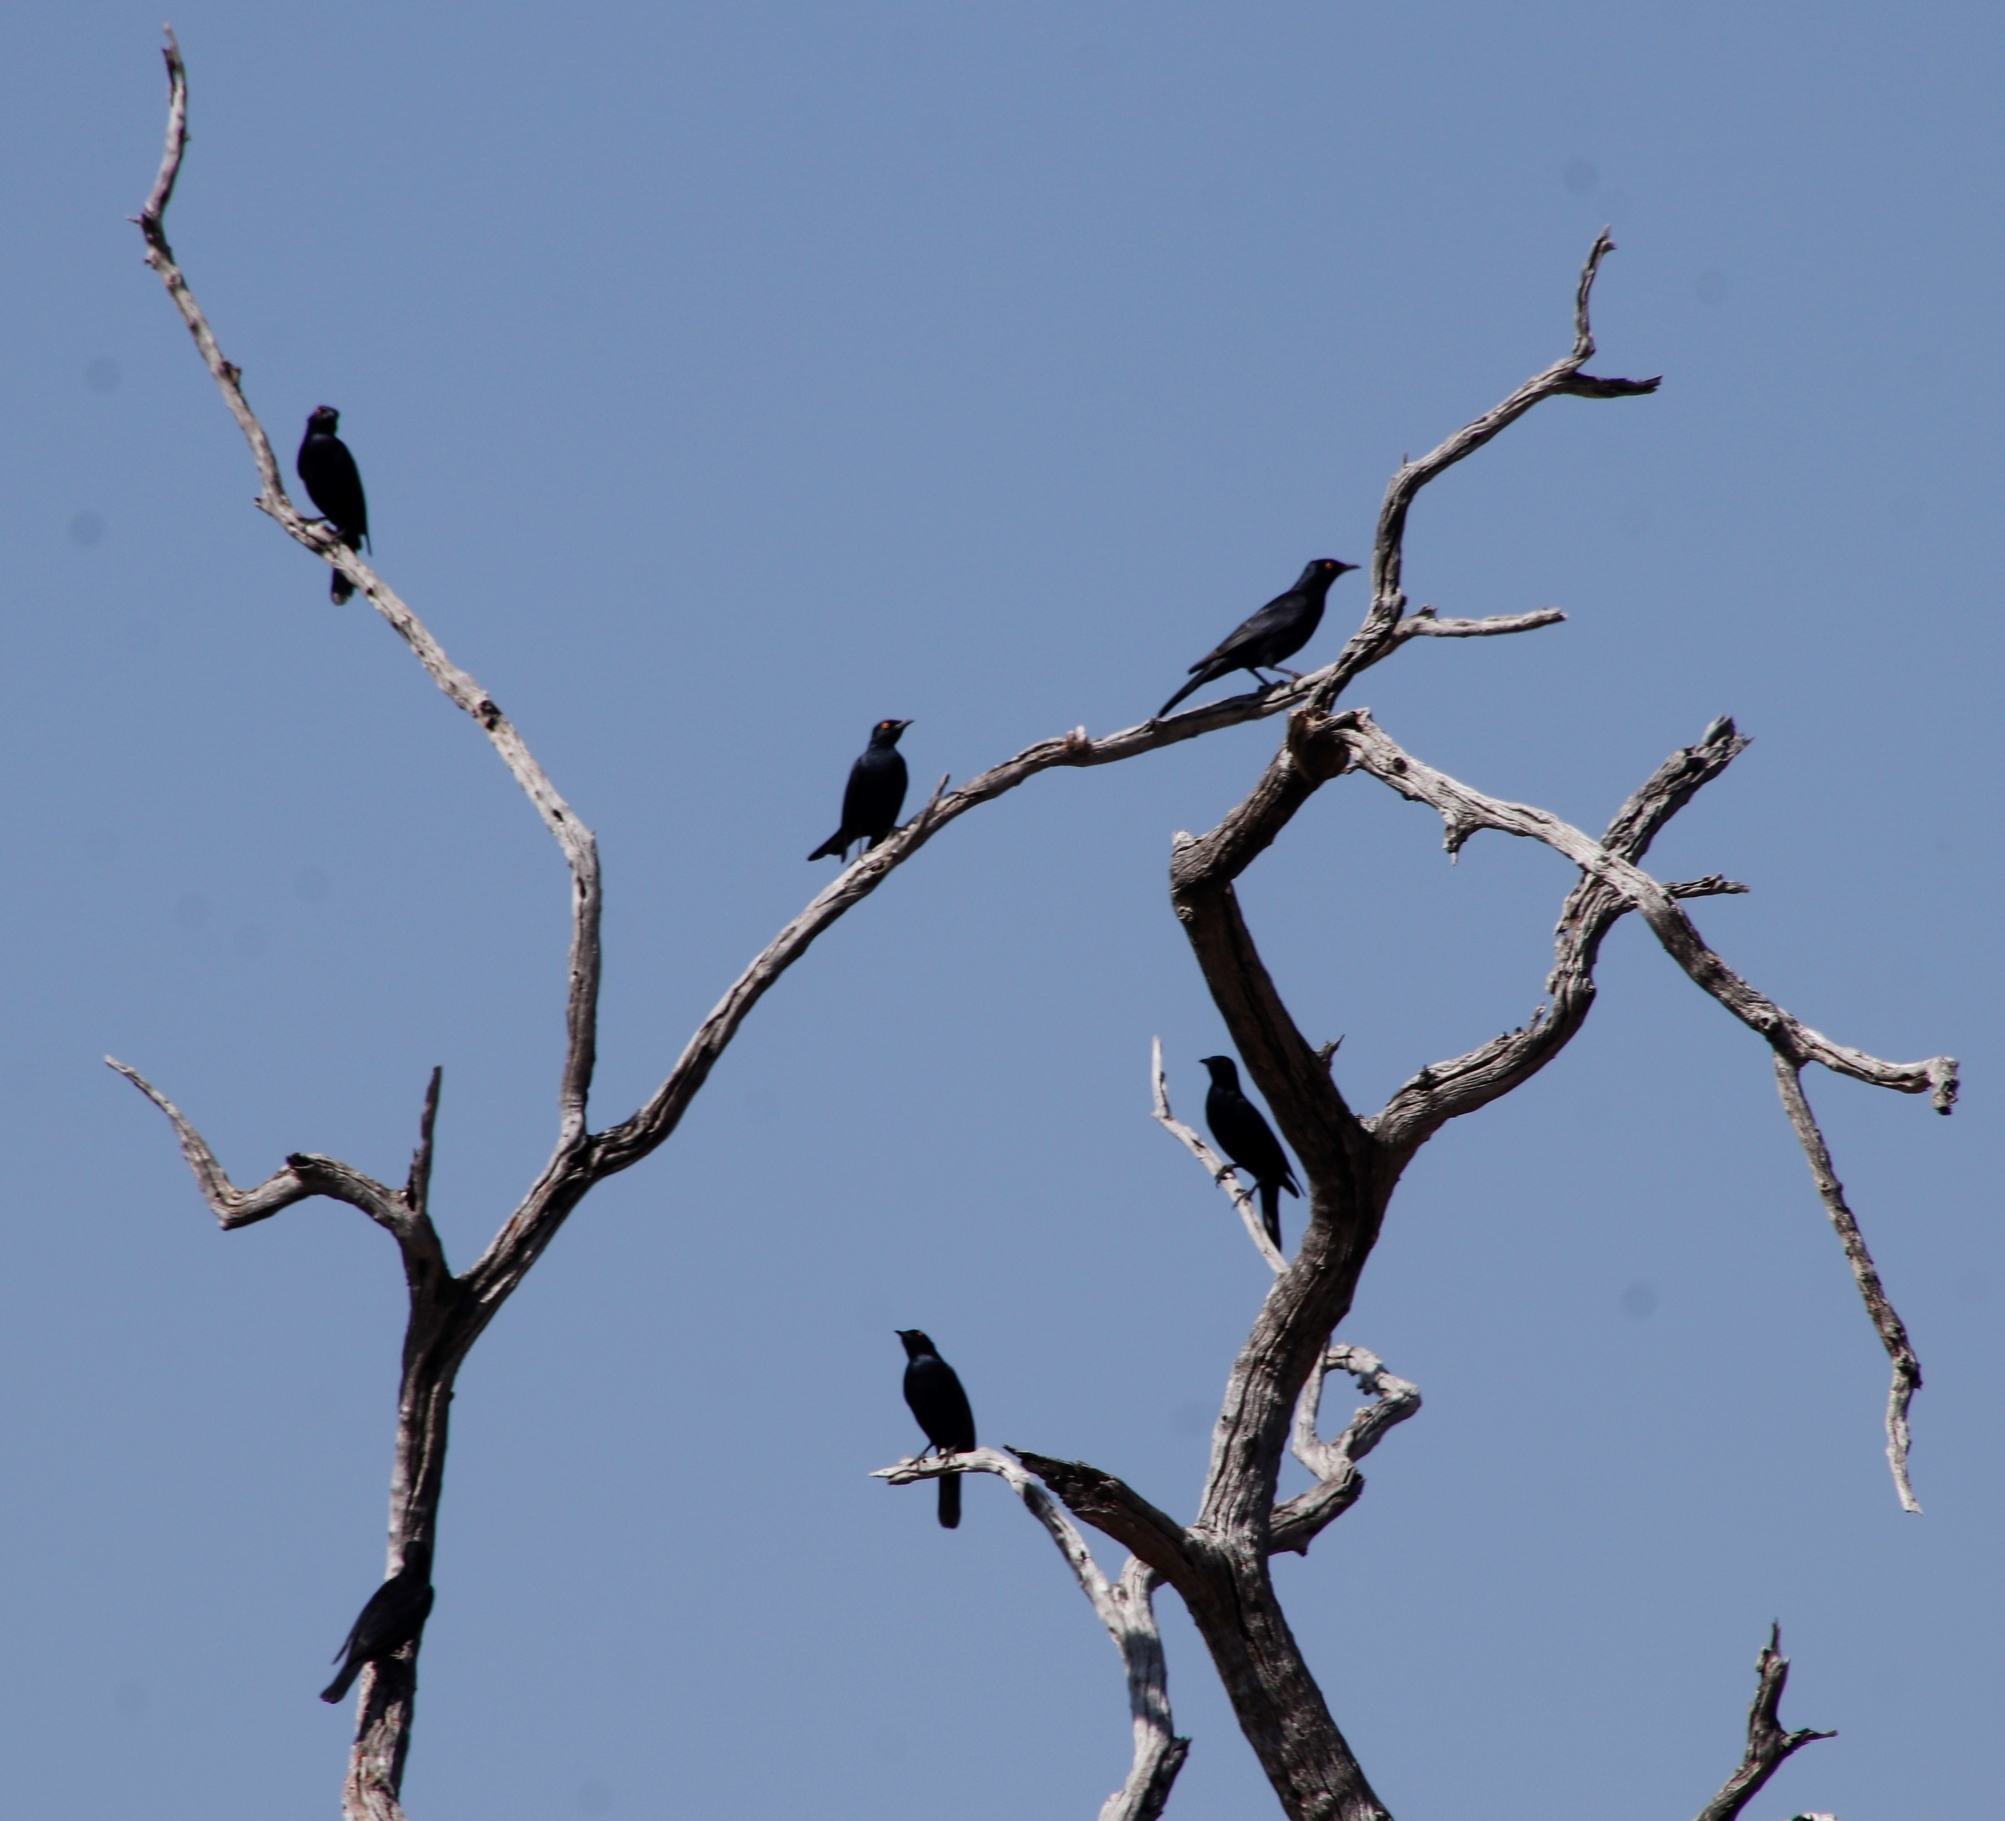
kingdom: Animalia
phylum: Chordata
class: Aves
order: Passeriformes
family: Sturnidae
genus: Onychognathus
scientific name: Onychognathus nabouroup
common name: Pale-winged starling
